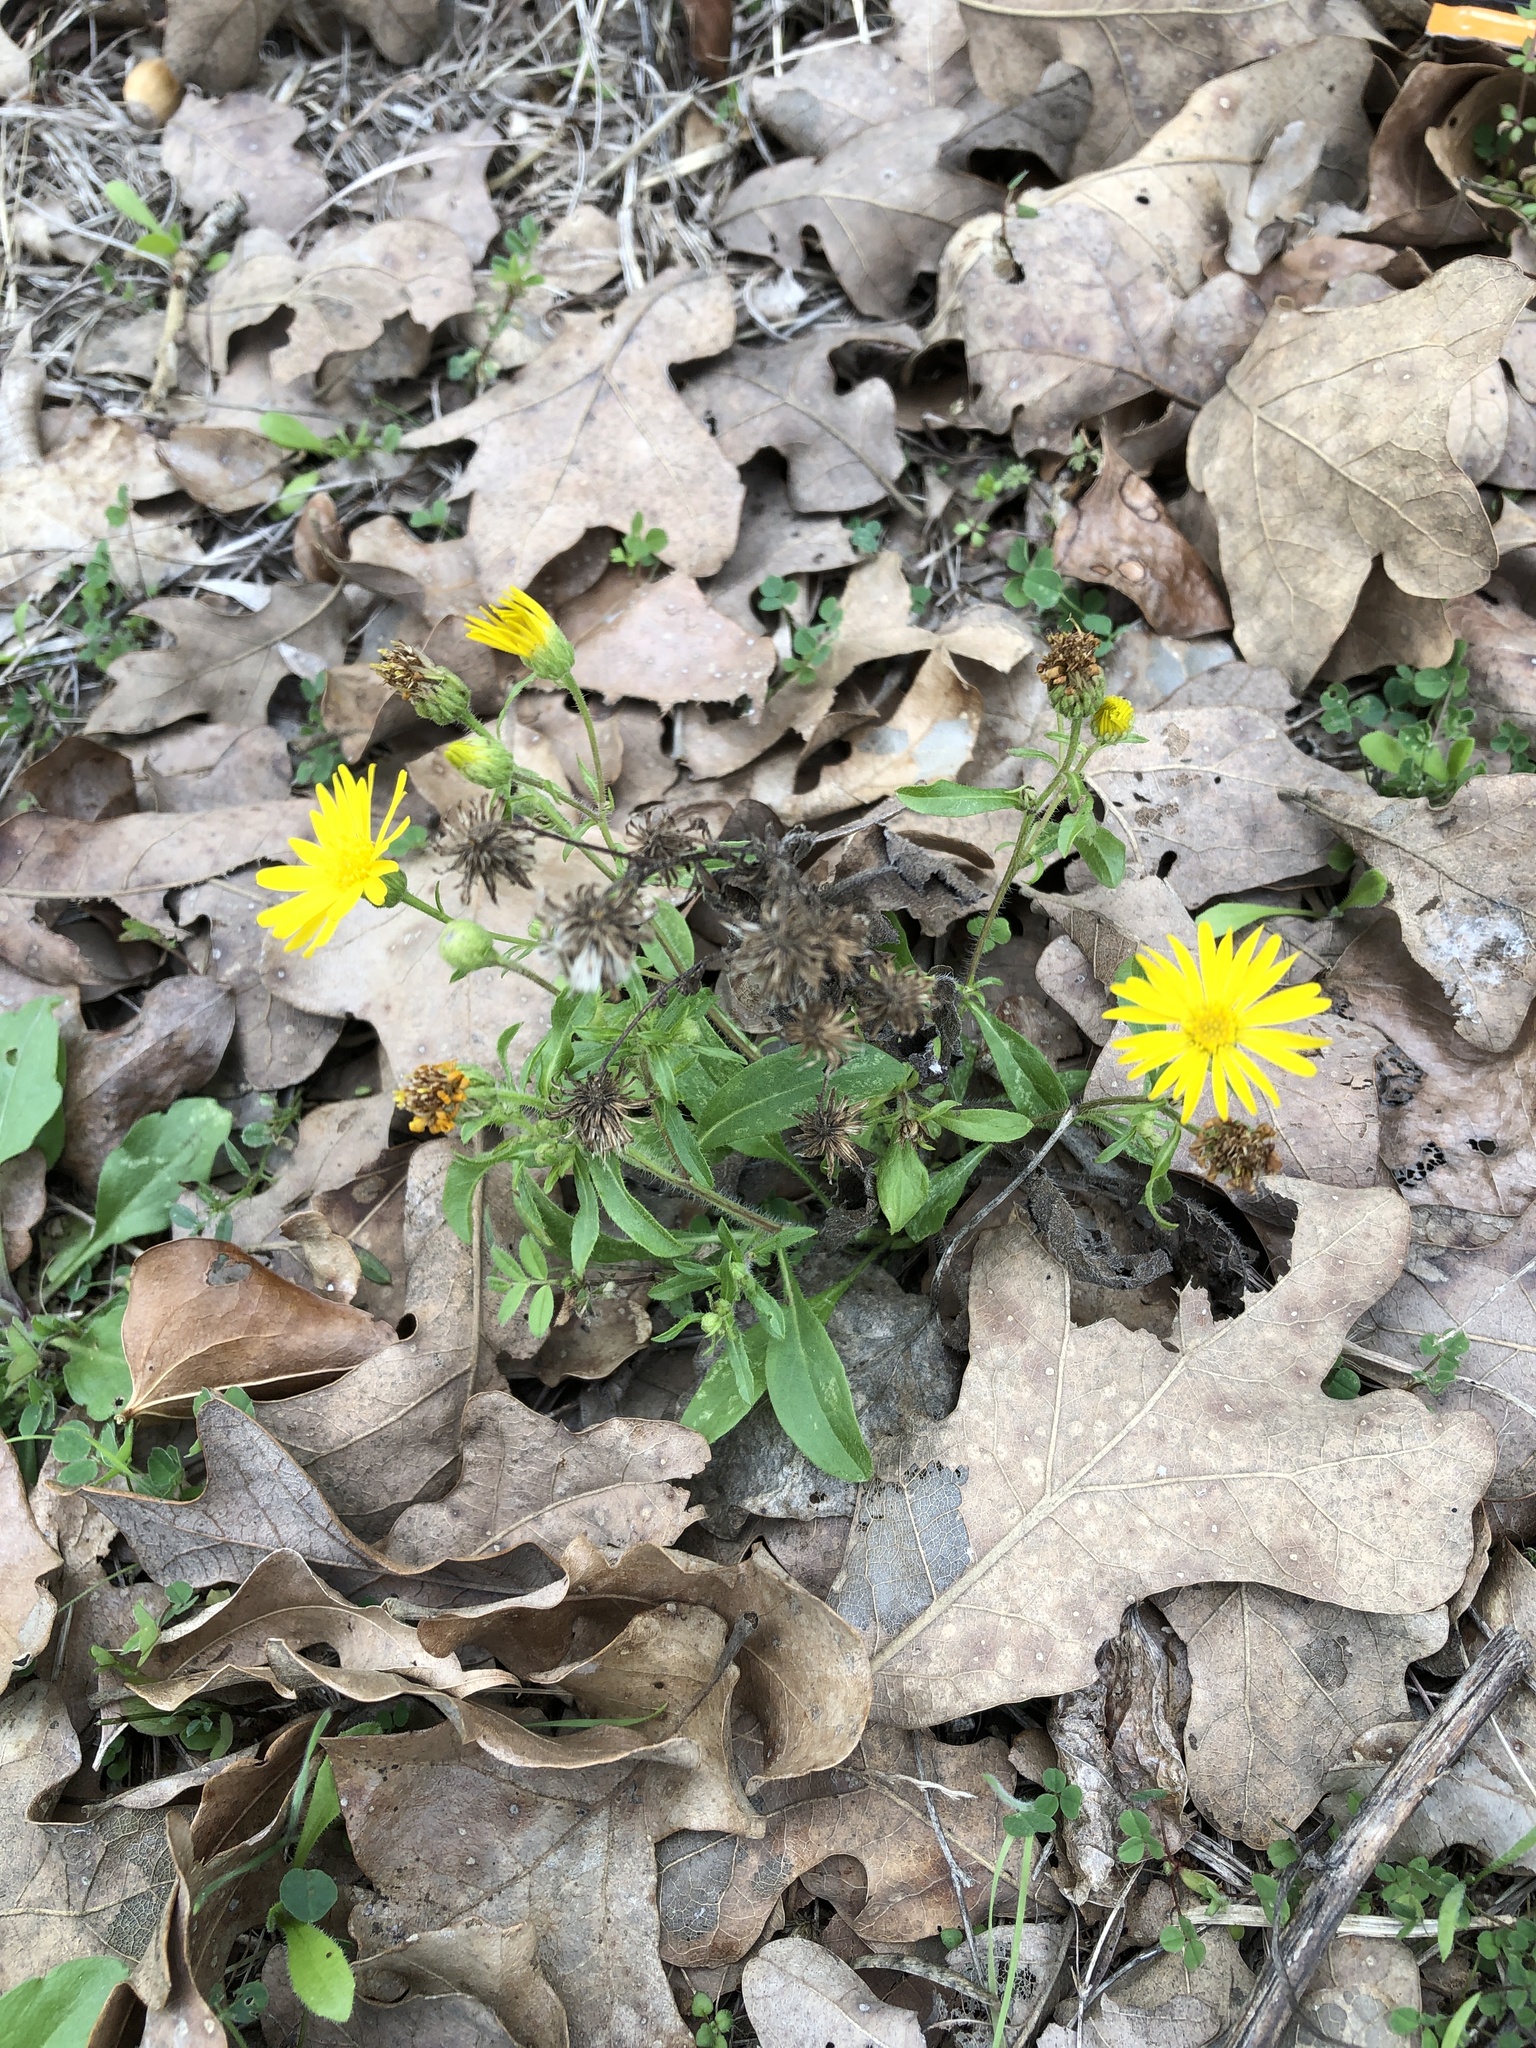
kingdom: Plantae
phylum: Tracheophyta
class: Magnoliopsida
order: Asterales
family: Asteraceae
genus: Heterotheca
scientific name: Heterotheca subaxillaris
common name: Camphorweed
